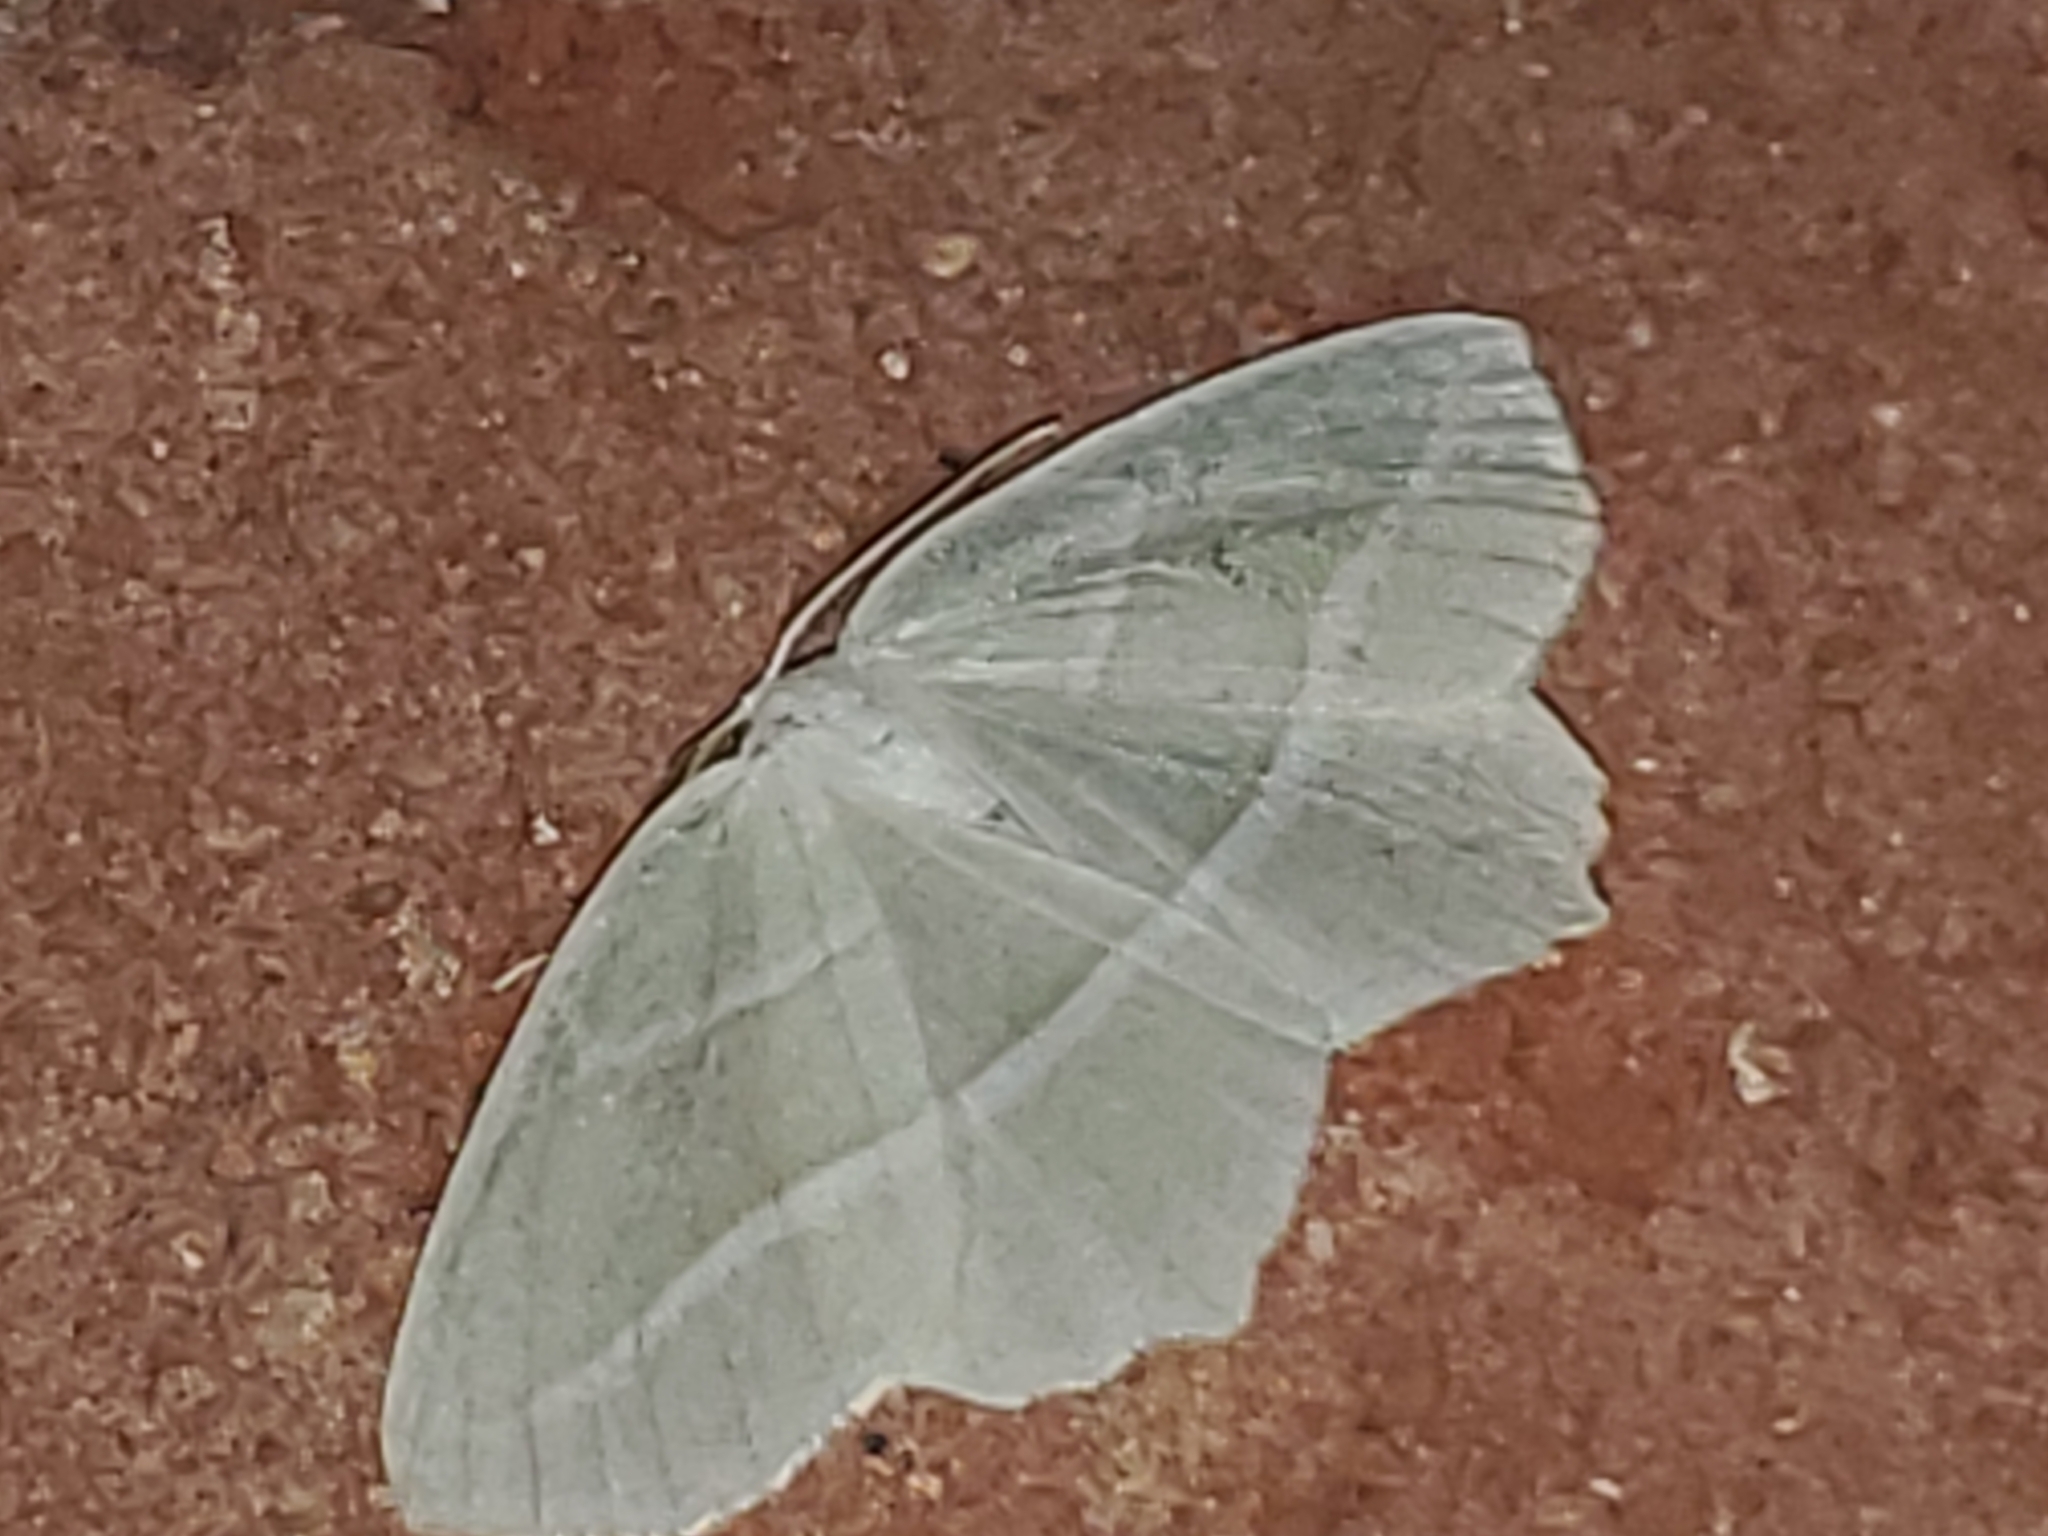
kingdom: Animalia
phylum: Arthropoda
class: Insecta
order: Lepidoptera
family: Geometridae
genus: Campaea
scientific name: Campaea perlata
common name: Fringed looper
